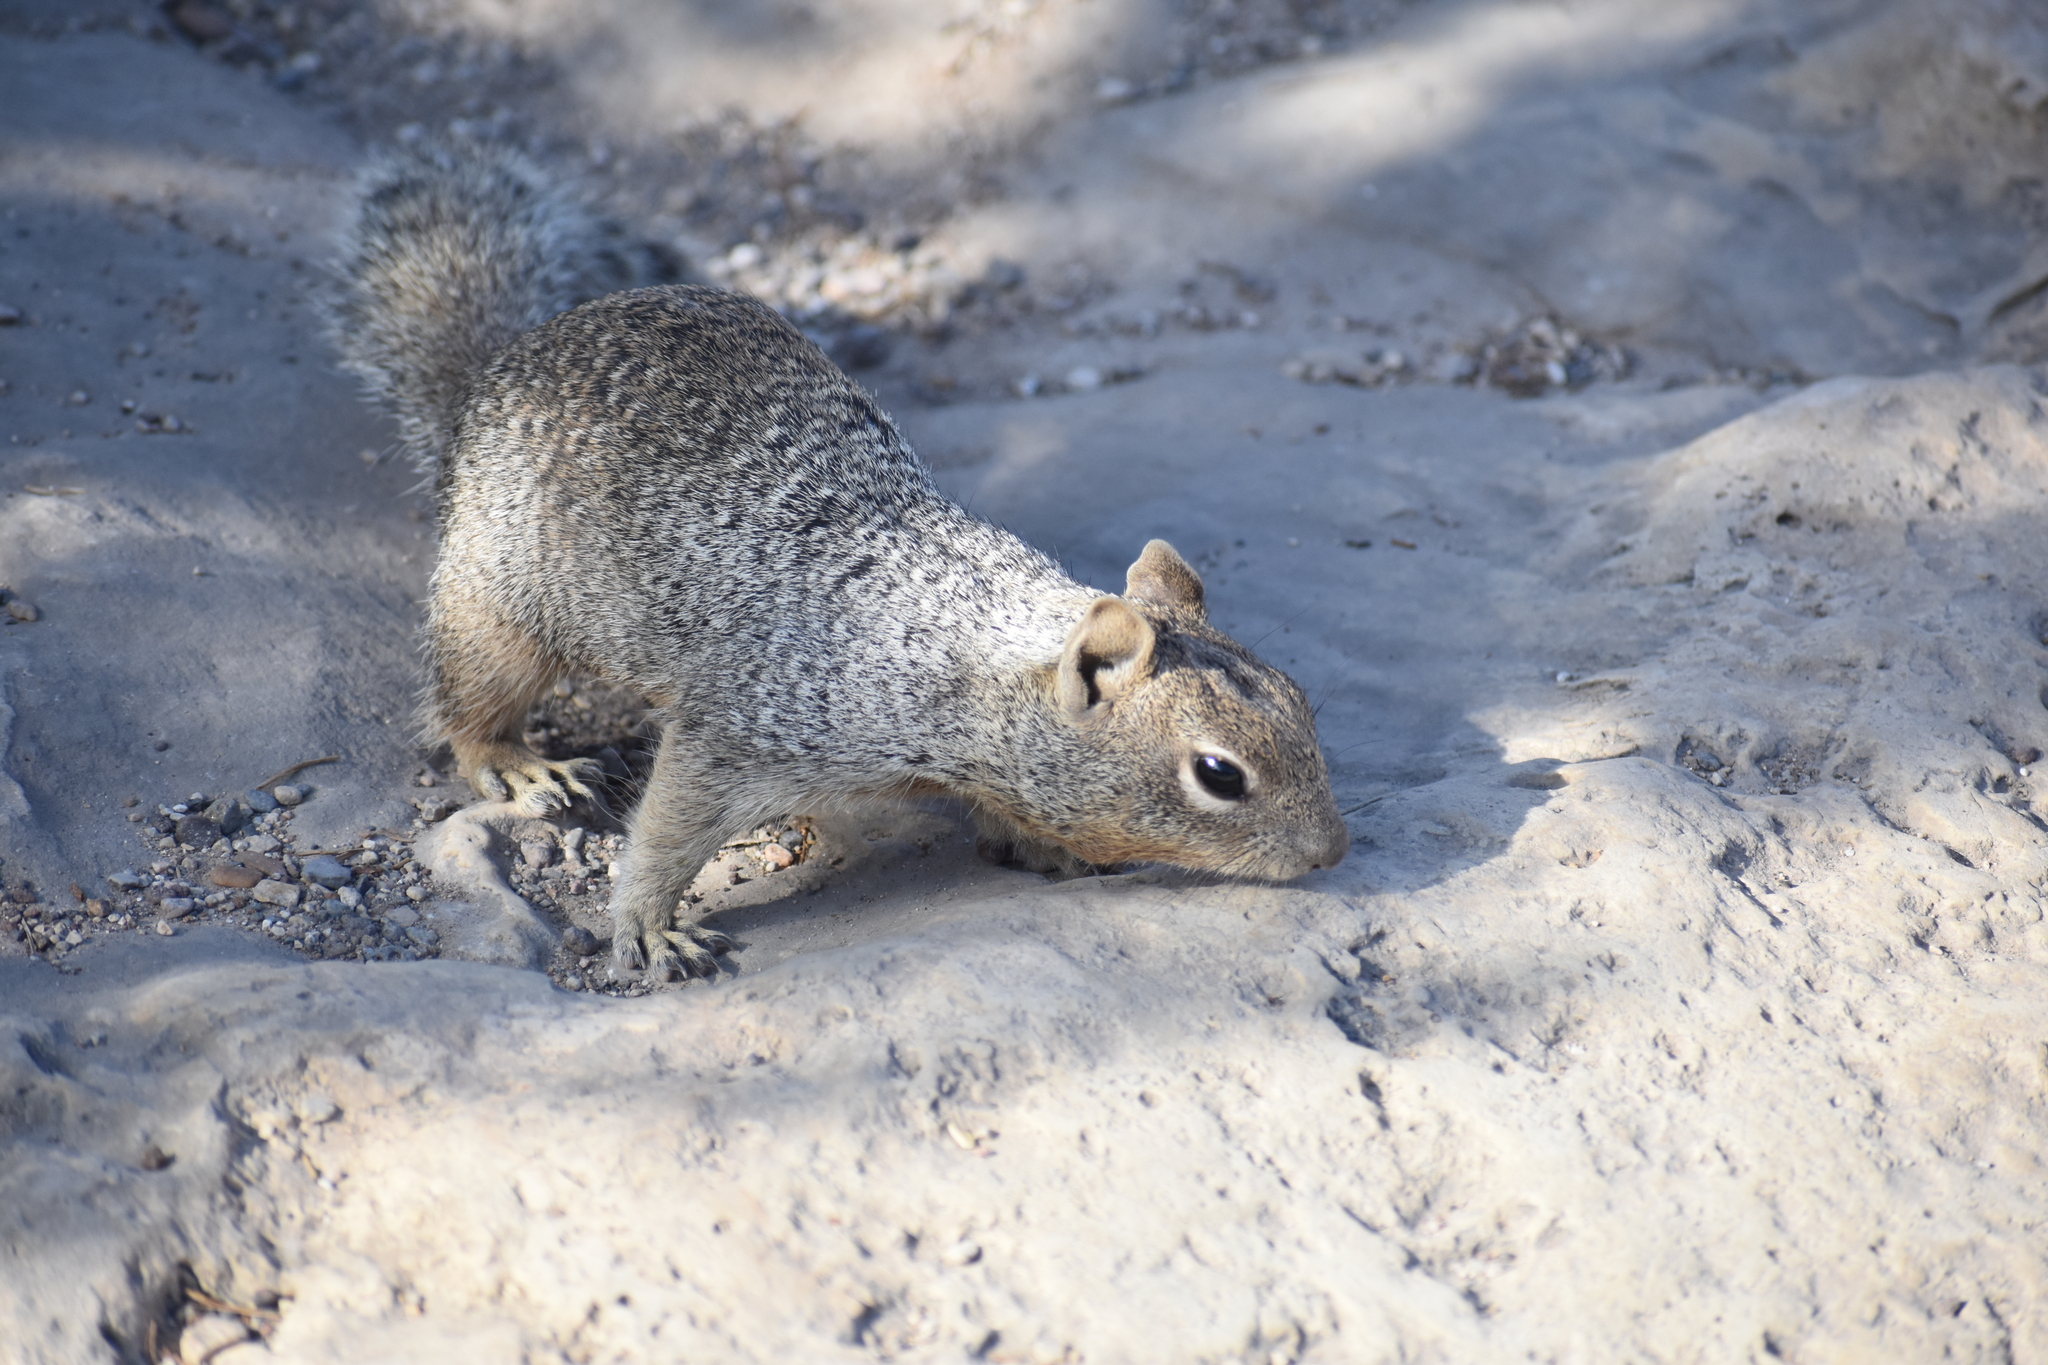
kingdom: Animalia
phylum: Chordata
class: Mammalia
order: Rodentia
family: Sciuridae
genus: Otospermophilus
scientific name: Otospermophilus variegatus
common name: Rock squirrel
